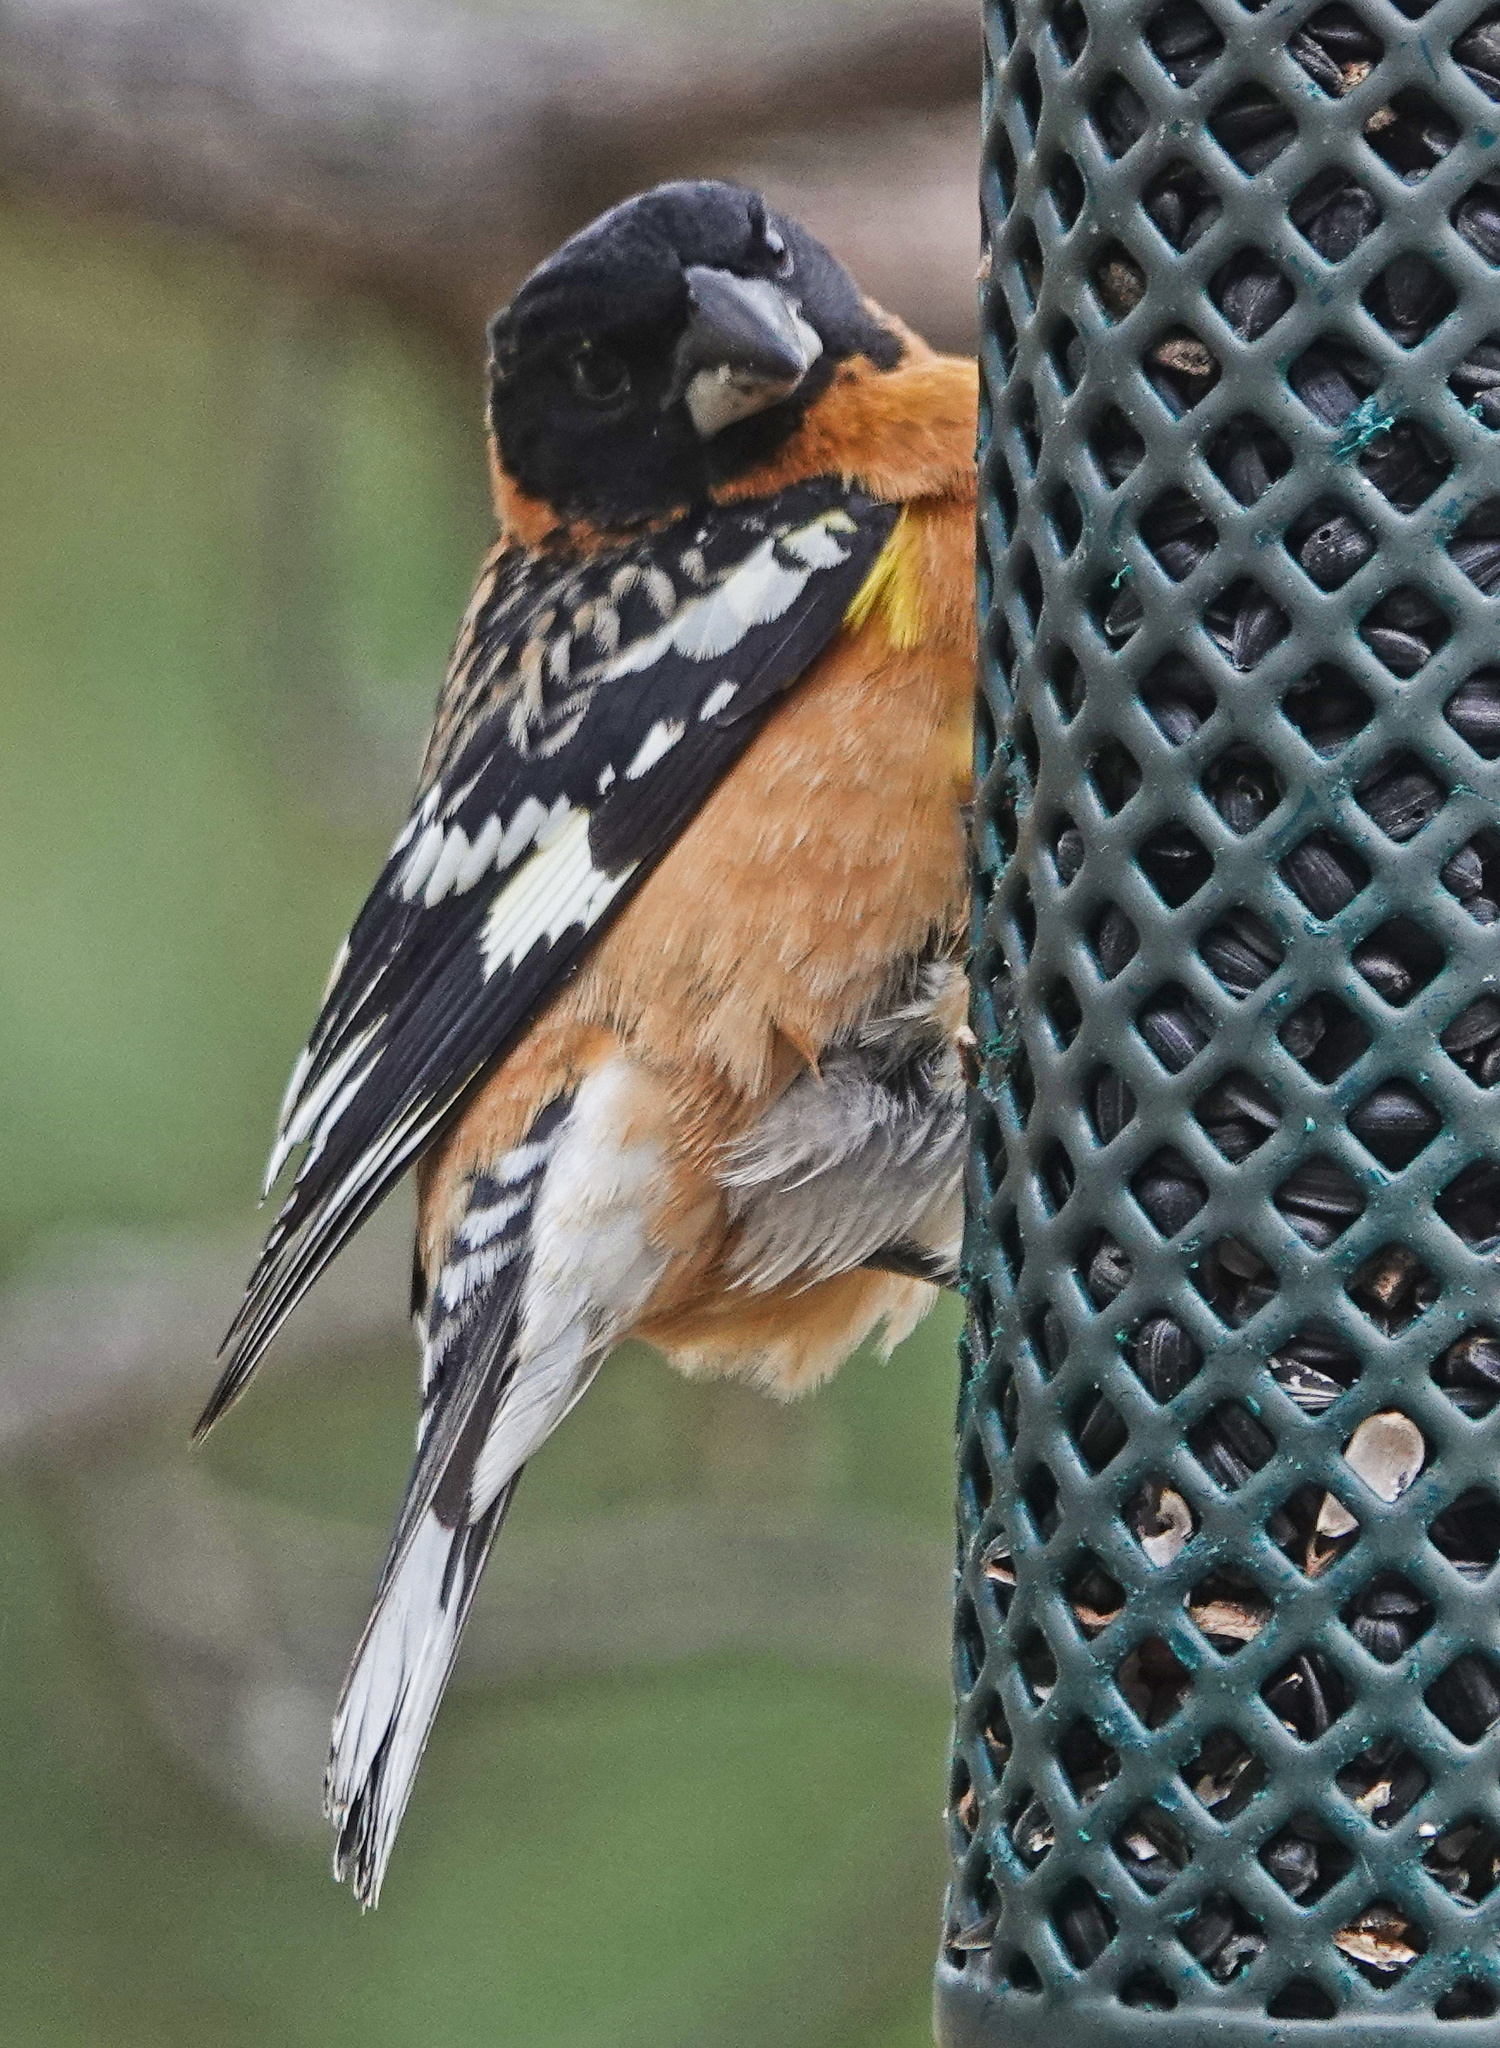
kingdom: Animalia
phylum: Chordata
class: Aves
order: Passeriformes
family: Cardinalidae
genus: Pheucticus
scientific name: Pheucticus melanocephalus
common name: Black-headed grosbeak
